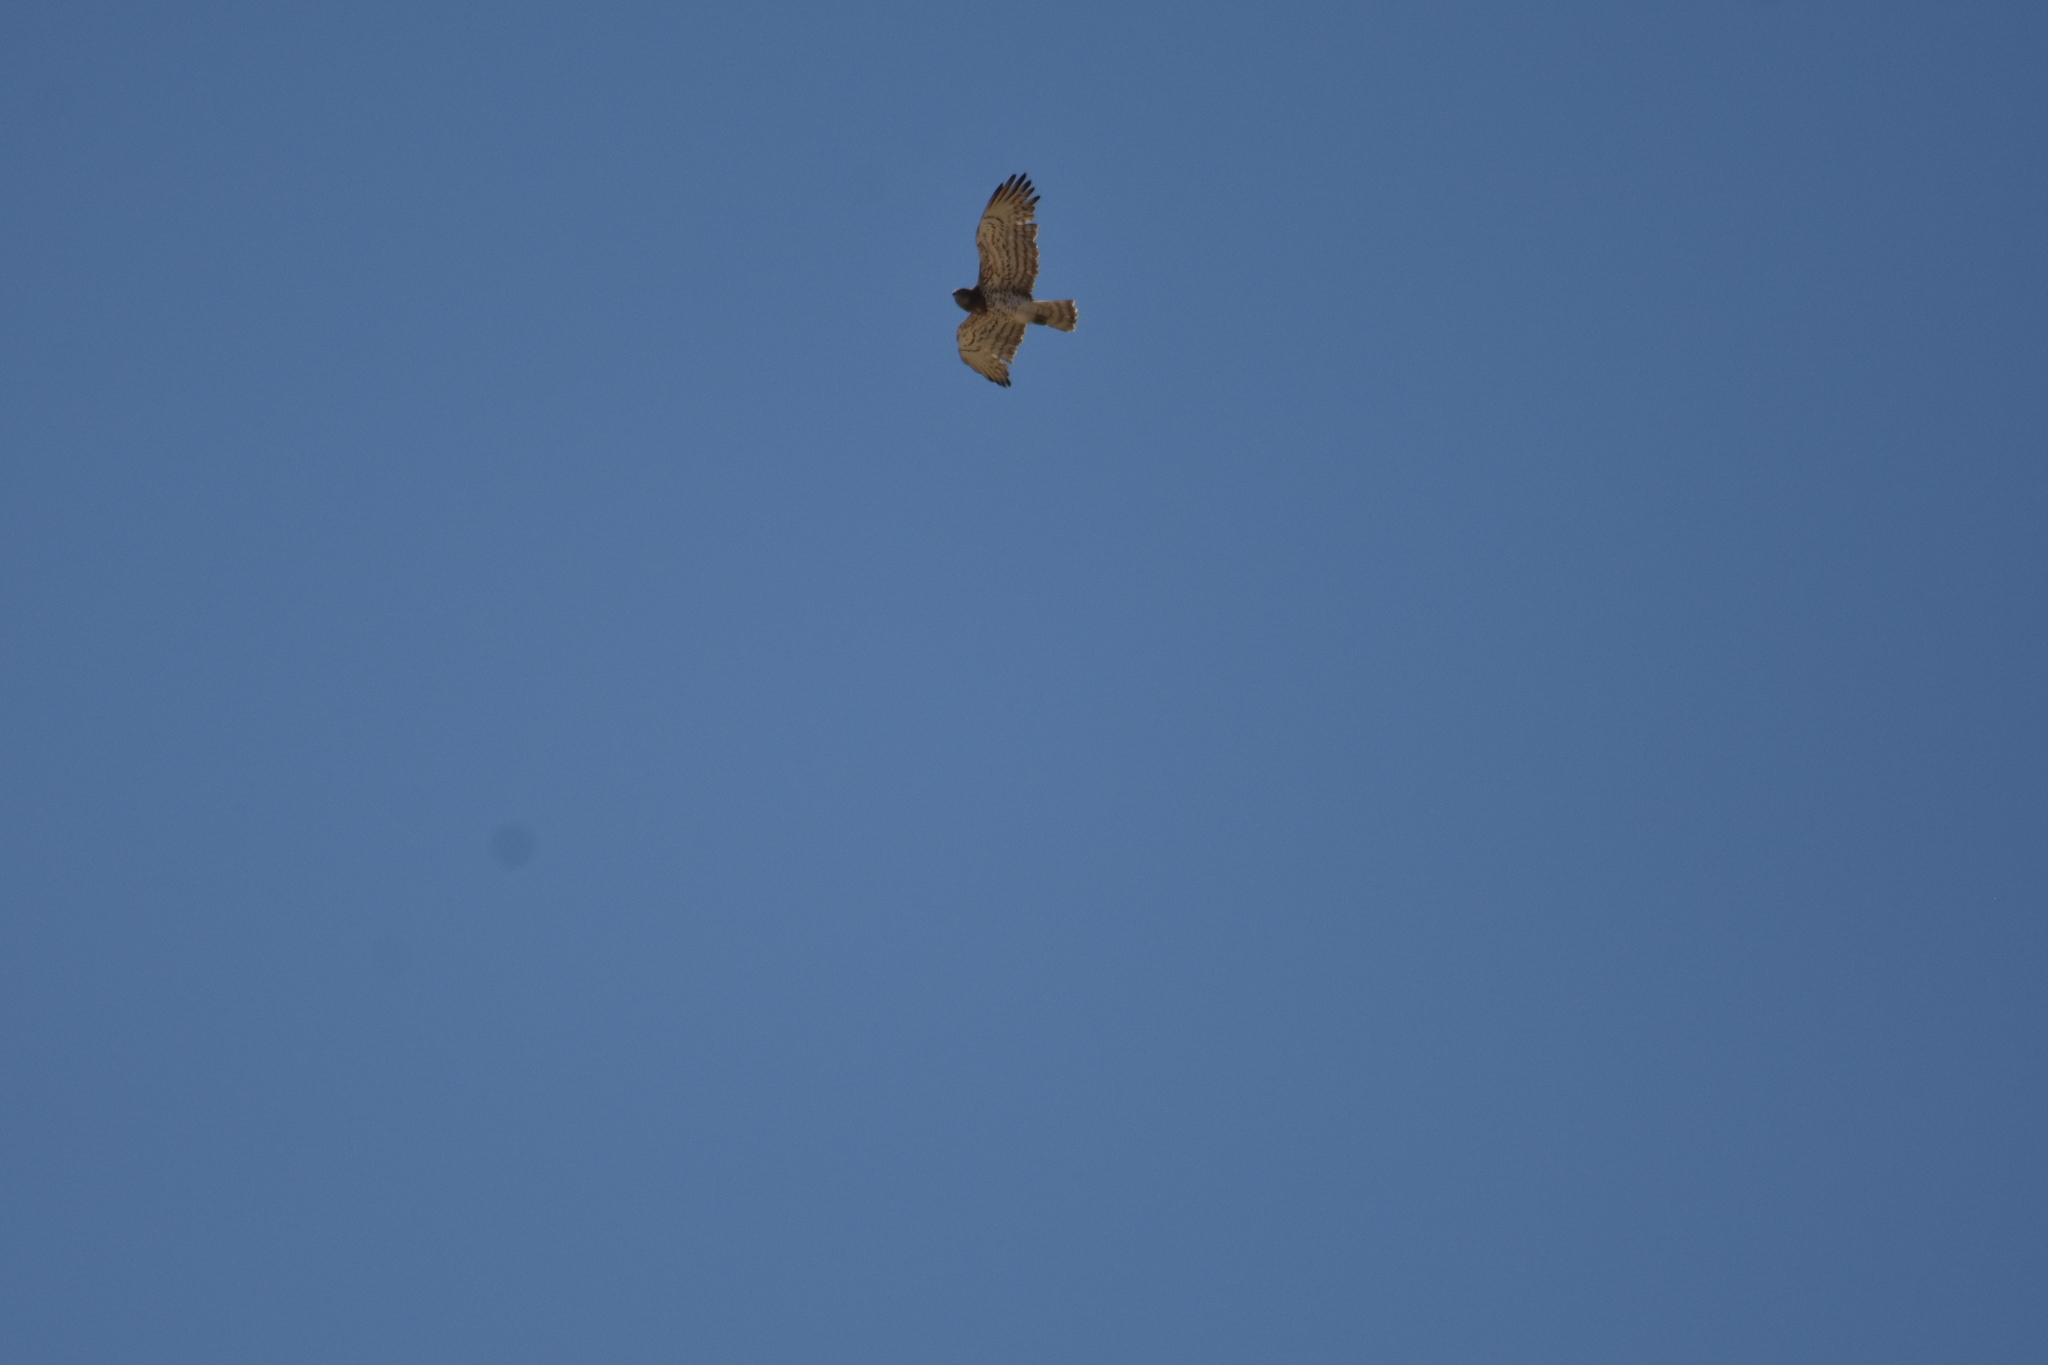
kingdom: Animalia
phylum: Chordata
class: Aves
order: Accipitriformes
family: Accipitridae
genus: Circaetus
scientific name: Circaetus gallicus
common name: Short-toed snake eagle
